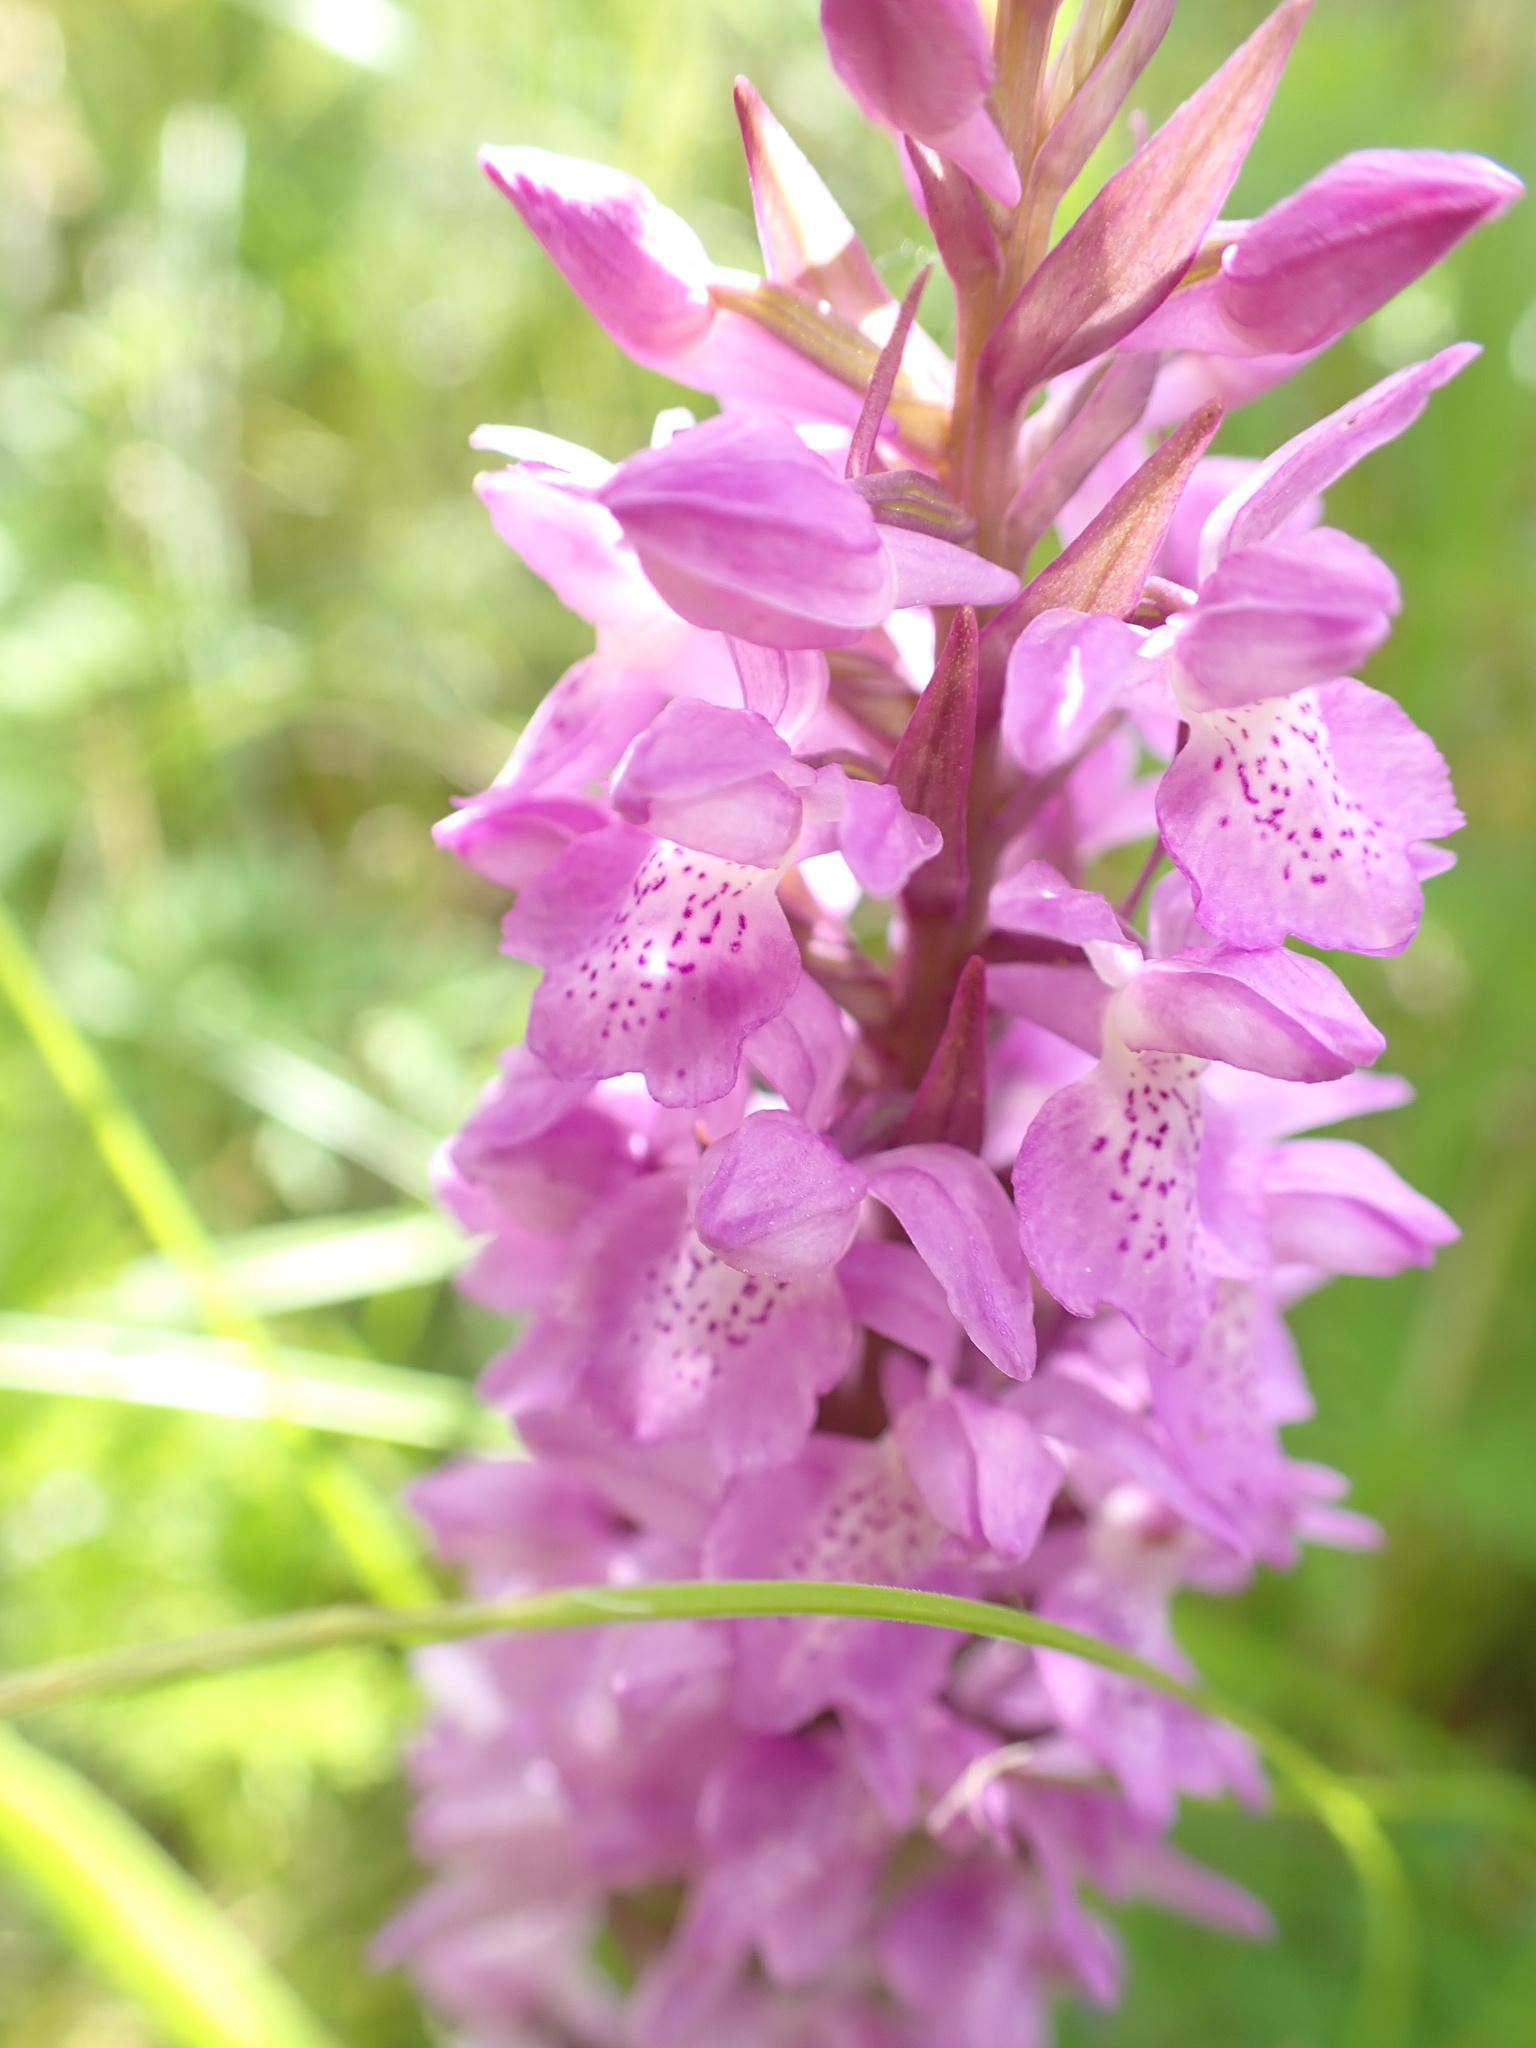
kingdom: Plantae
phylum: Tracheophyta
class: Liliopsida
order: Asparagales
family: Orchidaceae
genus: Dactylorhiza
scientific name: Dactylorhiza majalis
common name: Marsh orchid
